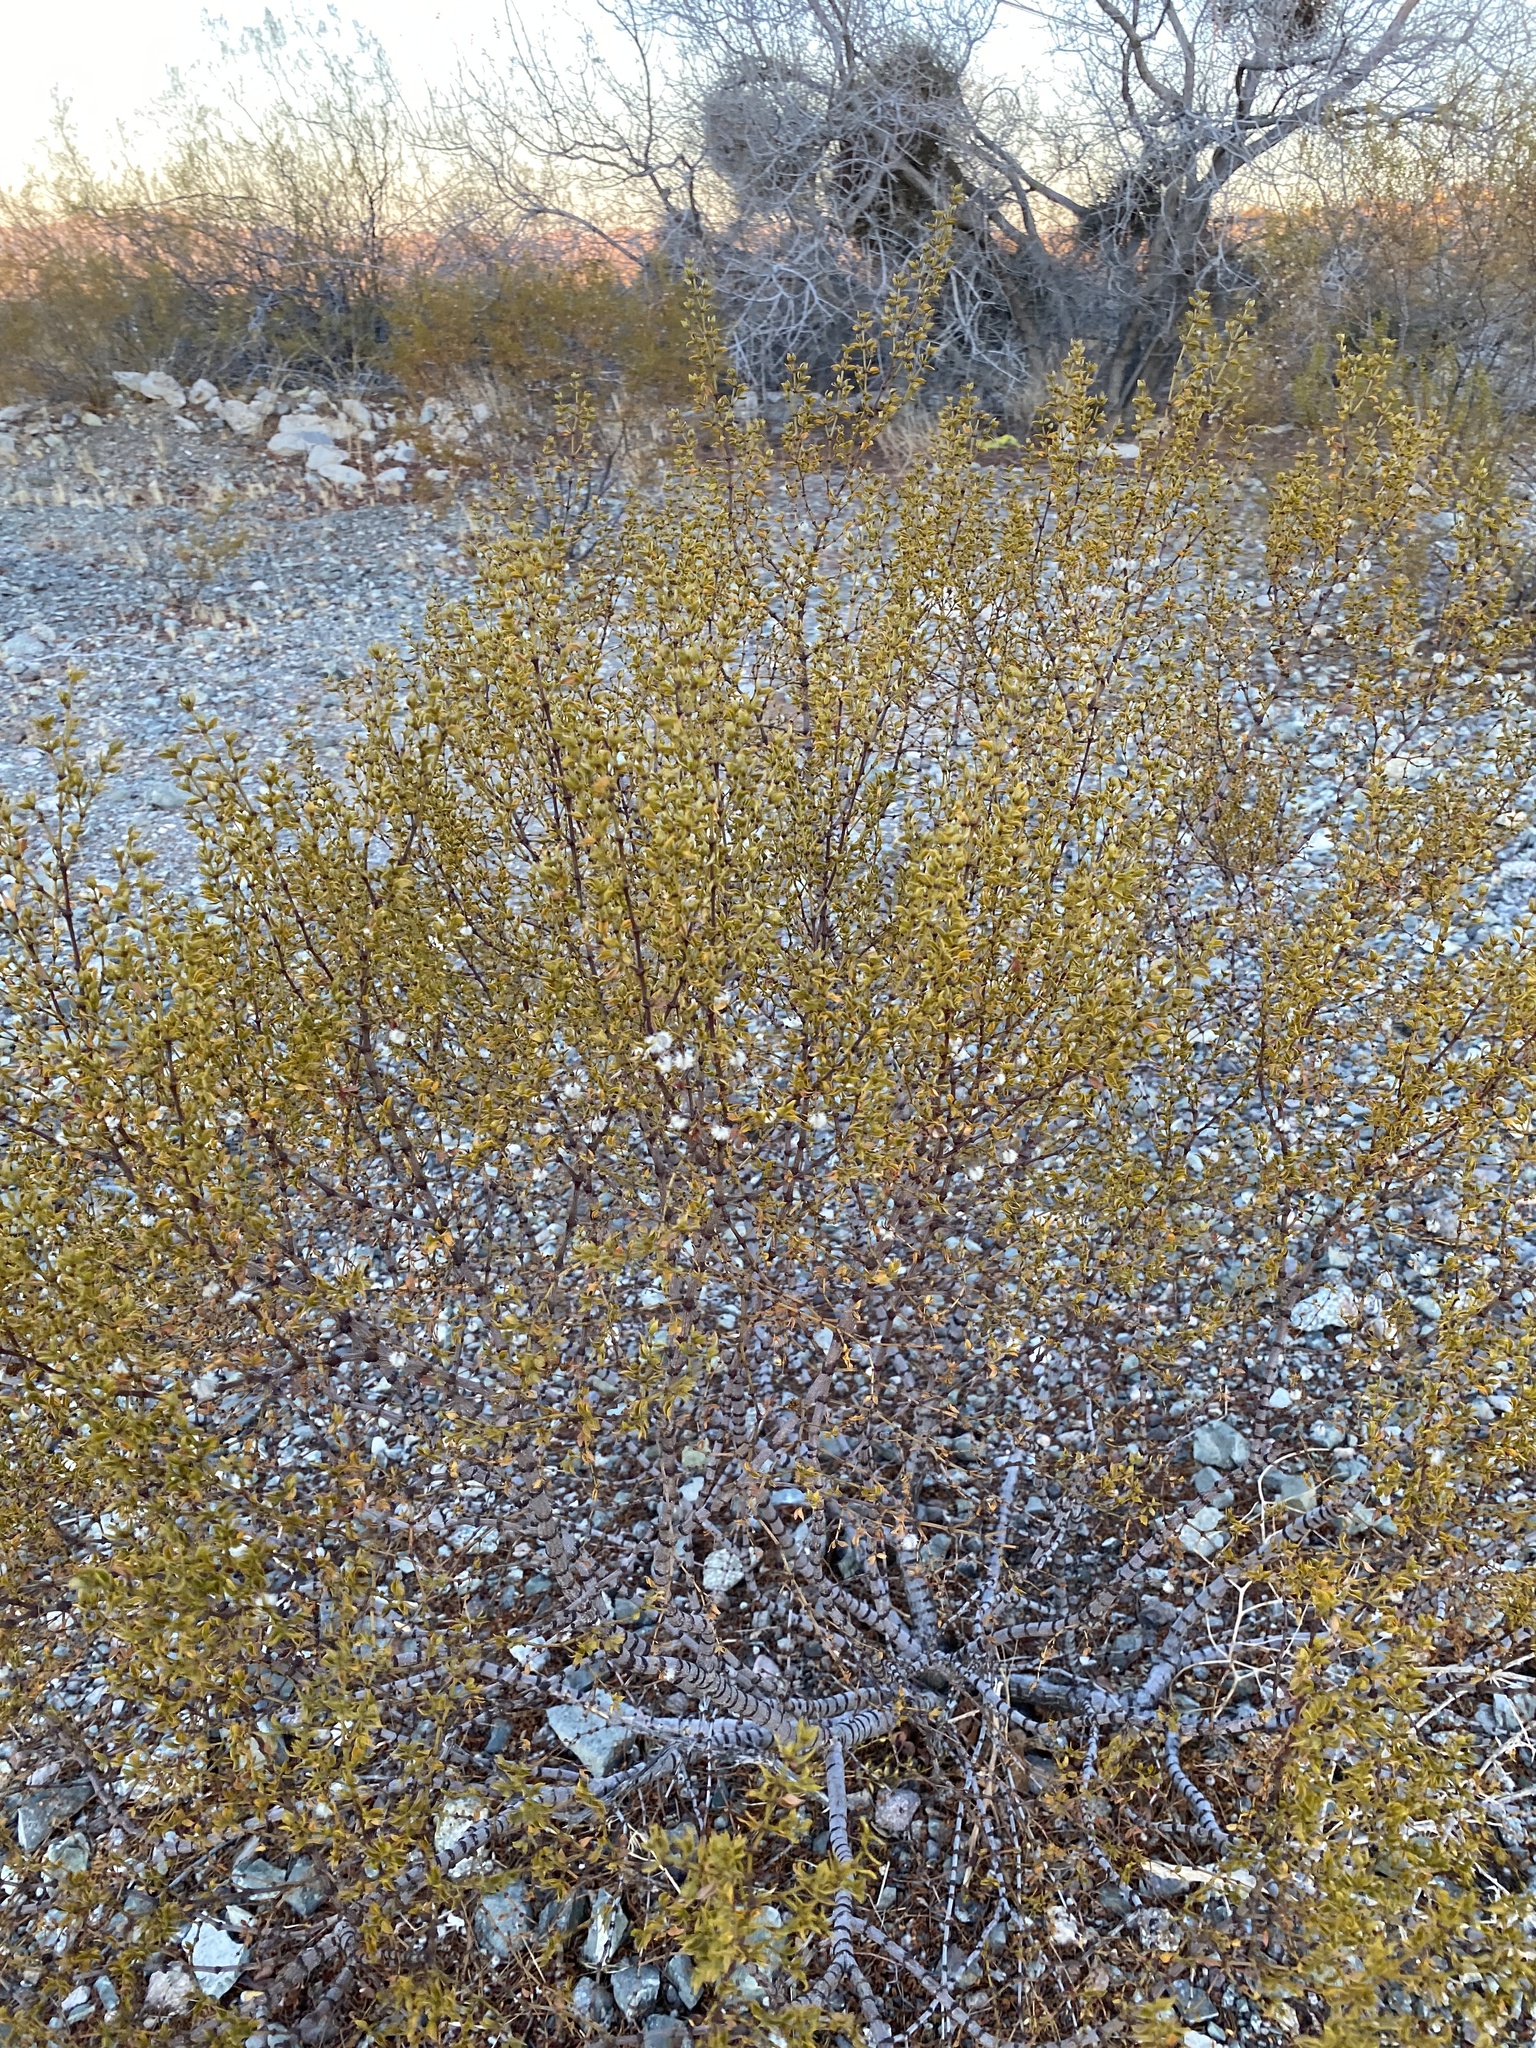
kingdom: Plantae
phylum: Tracheophyta
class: Magnoliopsida
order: Zygophyllales
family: Zygophyllaceae
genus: Larrea
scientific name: Larrea tridentata
